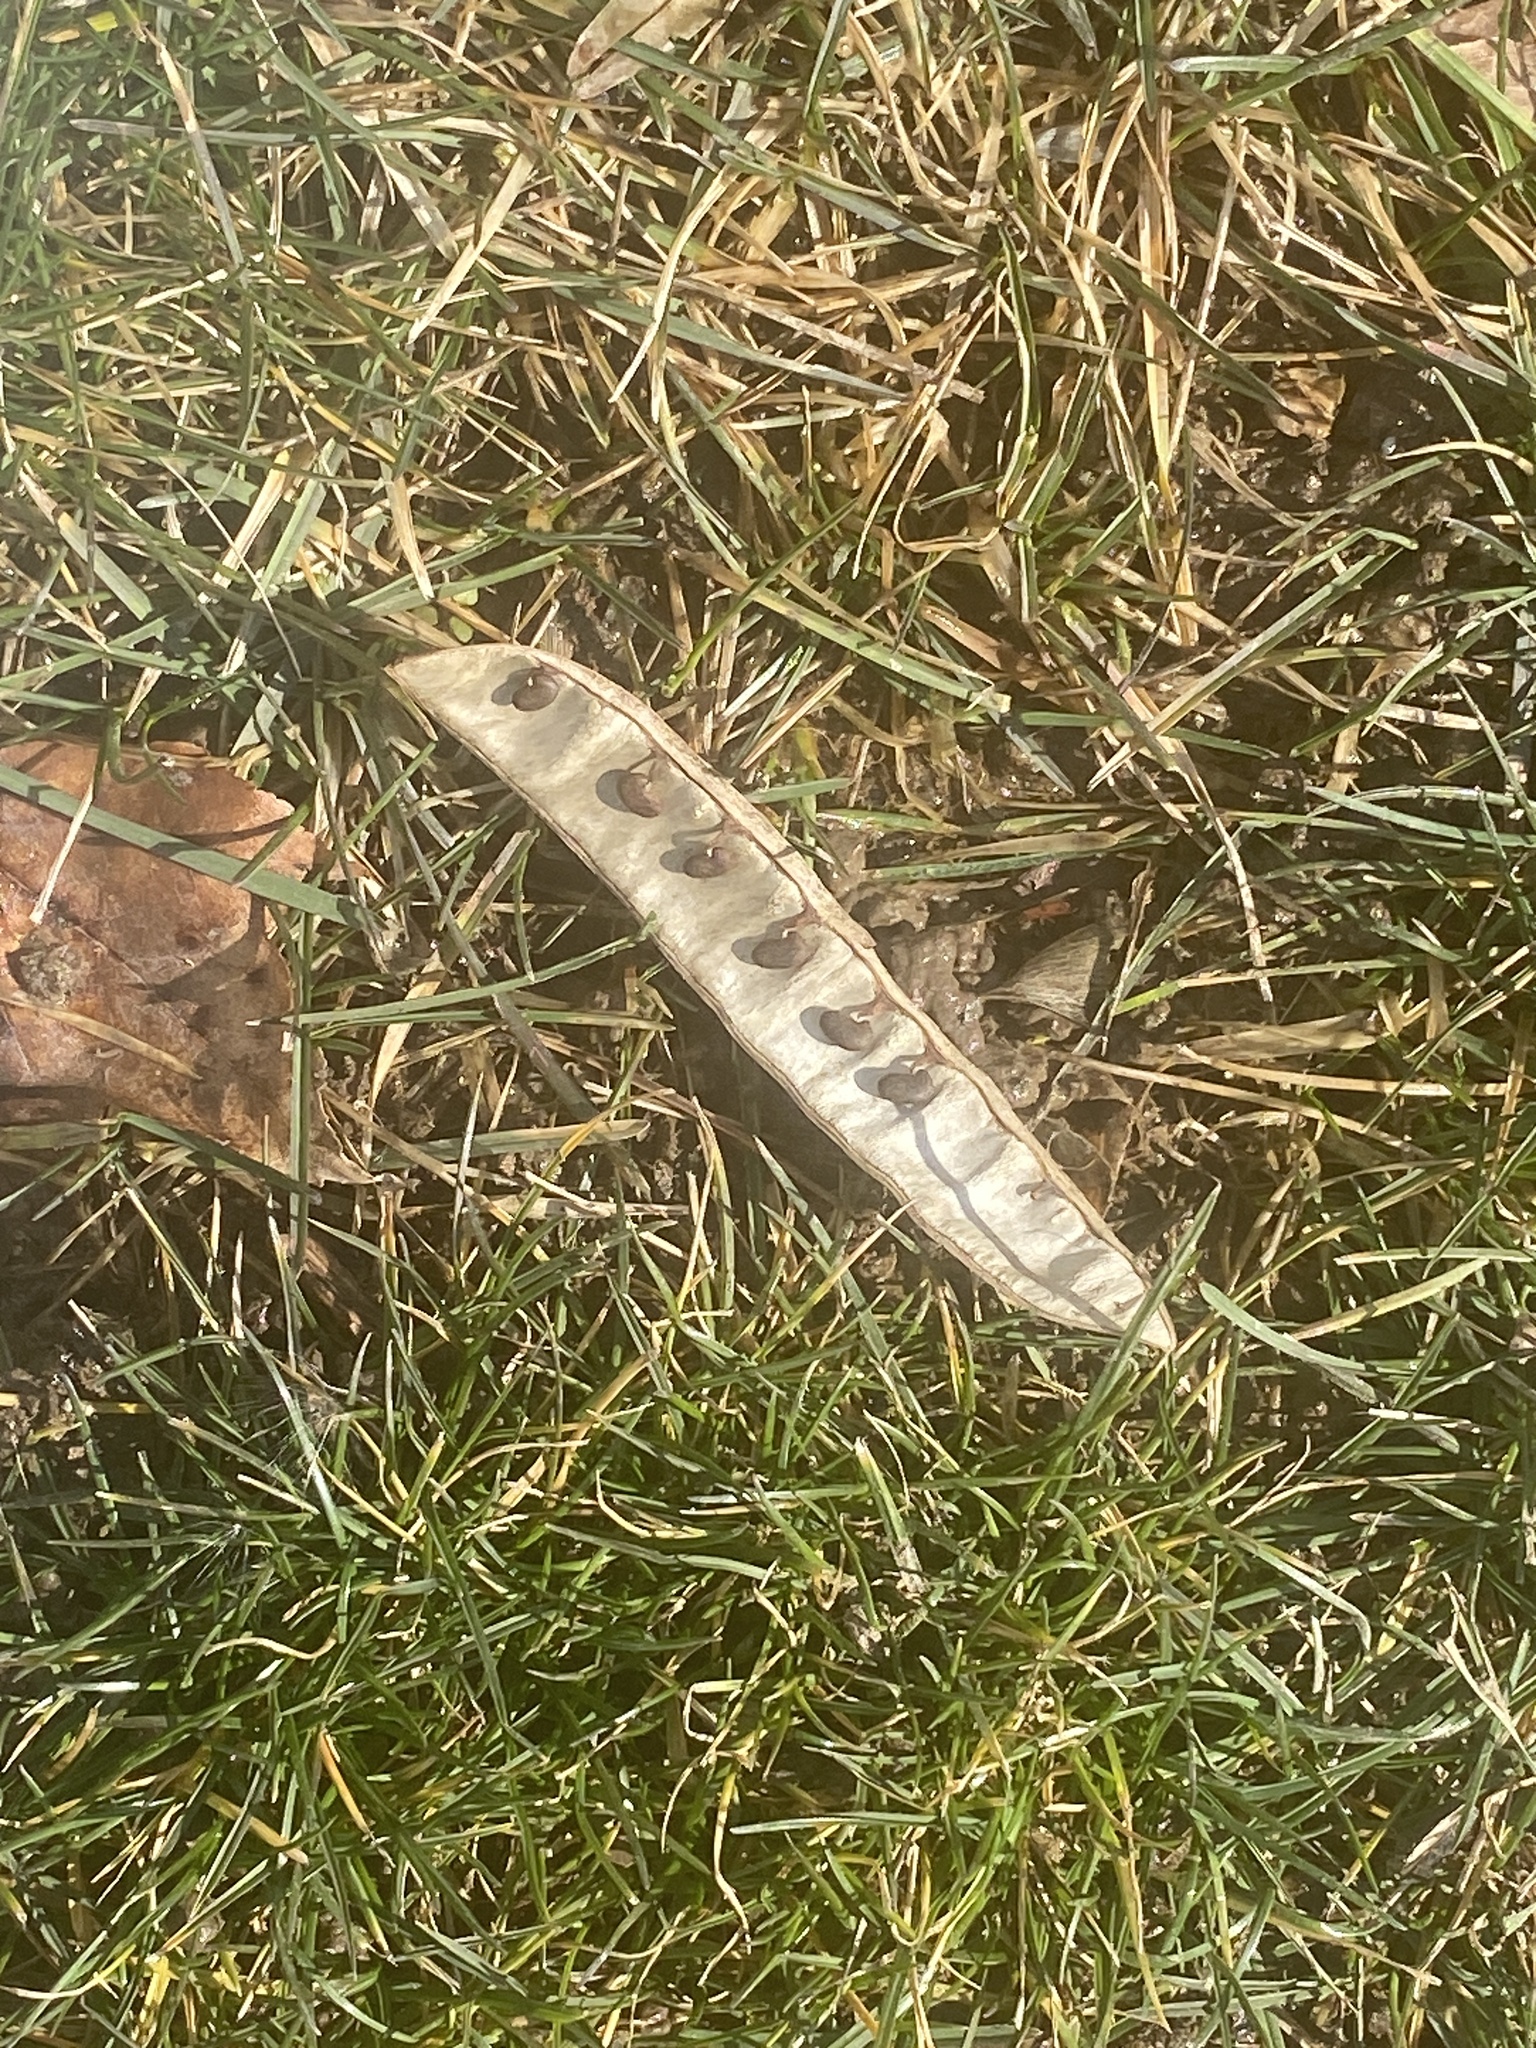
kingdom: Plantae
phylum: Tracheophyta
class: Magnoliopsida
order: Fabales
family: Fabaceae
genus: Robinia
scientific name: Robinia pseudoacacia
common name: Black locust
